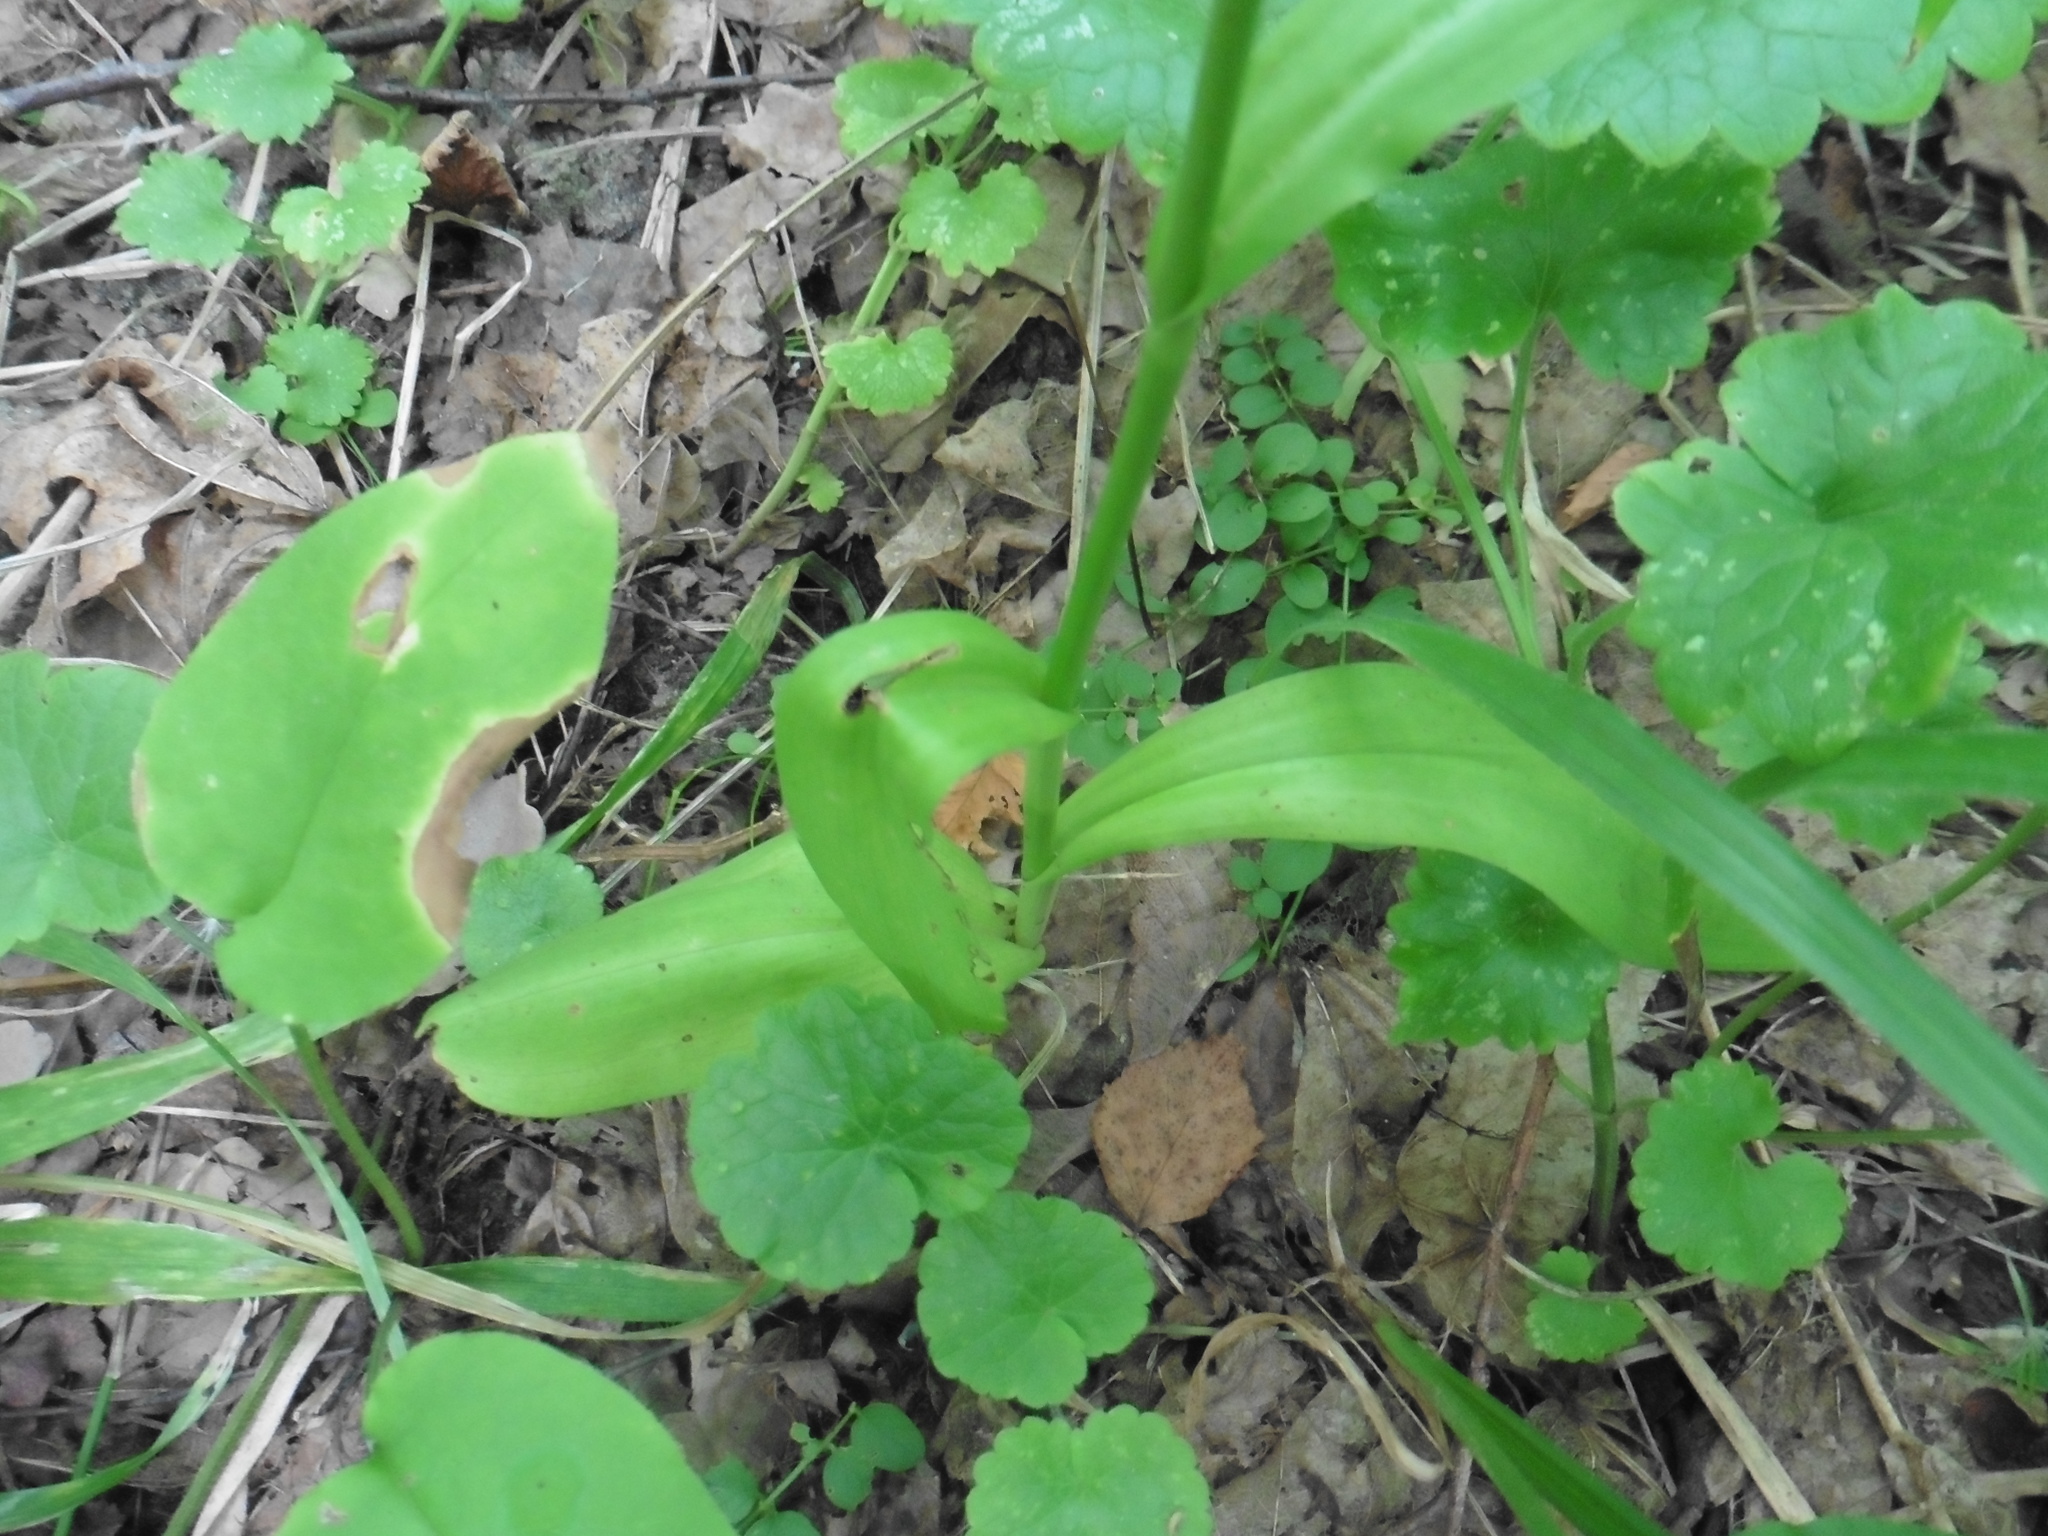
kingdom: Plantae
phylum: Tracheophyta
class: Liliopsida
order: Asparagales
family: Orchidaceae
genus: Dactylorhiza
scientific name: Dactylorhiza maculata
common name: Heath spotted-orchid
